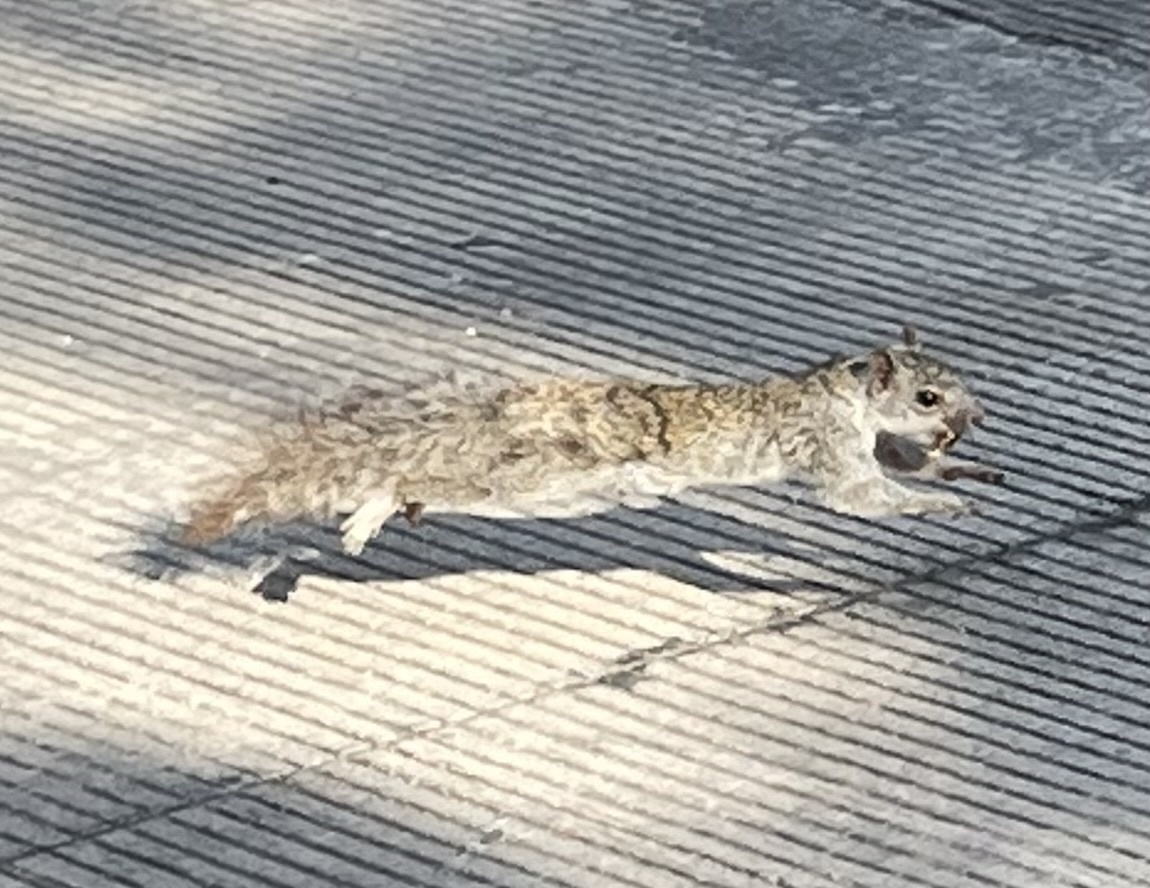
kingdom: Animalia
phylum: Chordata
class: Mammalia
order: Rodentia
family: Sciuridae
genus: Sciurus
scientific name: Sciurus yucatanensis
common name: Yucatan squirrel
